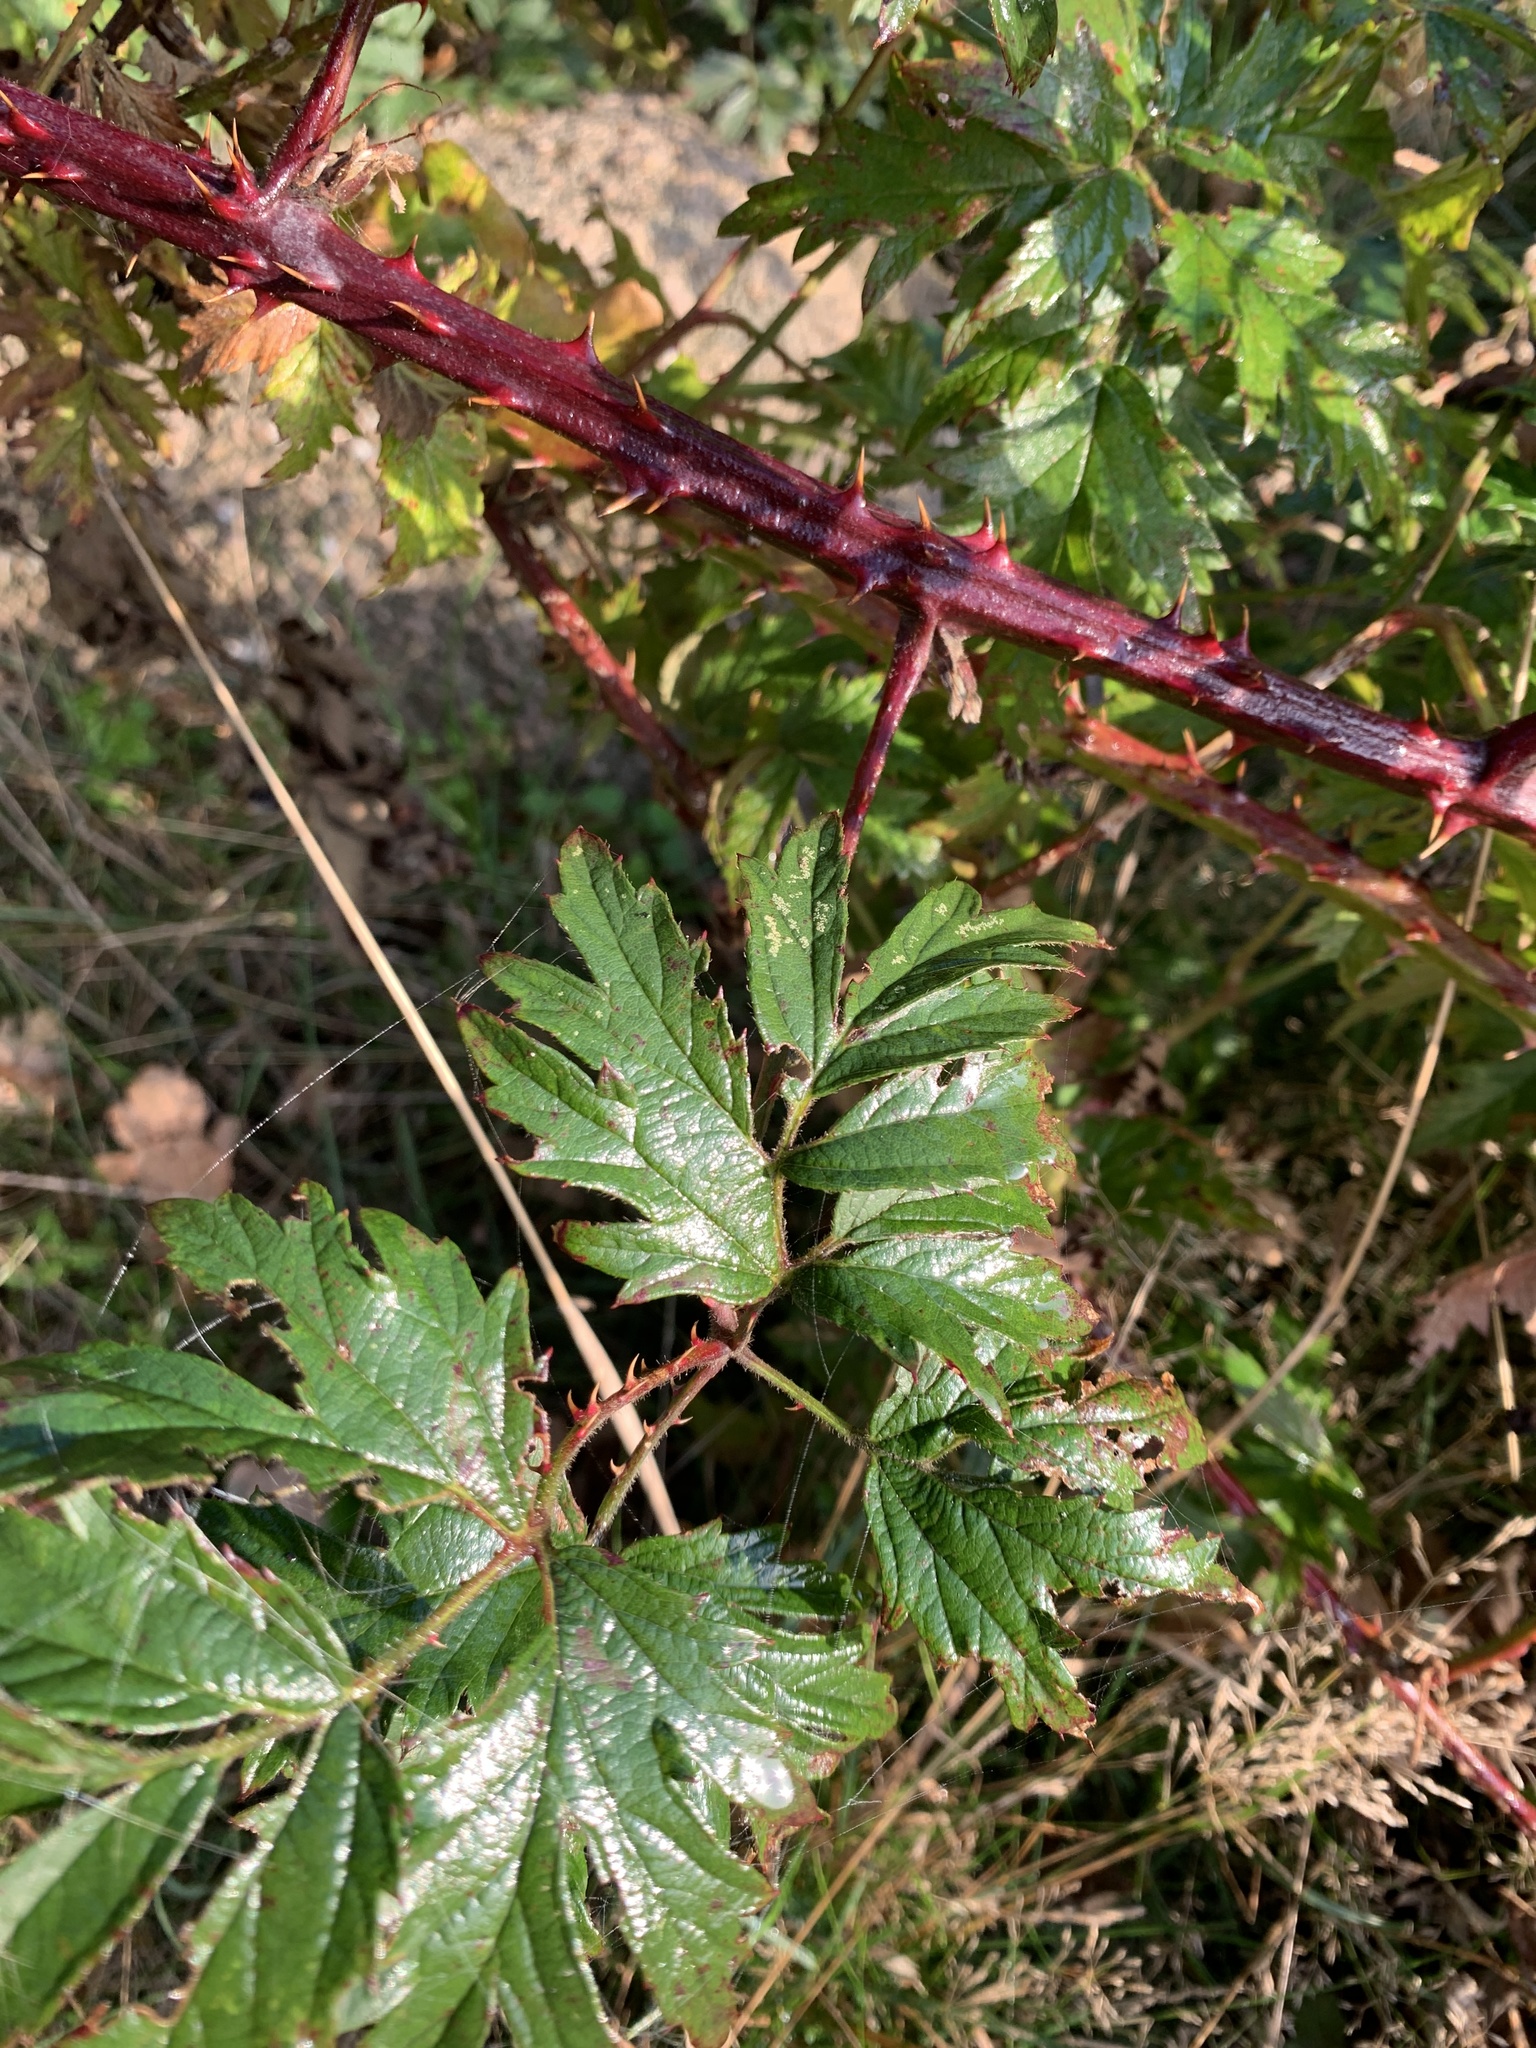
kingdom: Plantae
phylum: Tracheophyta
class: Magnoliopsida
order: Rosales
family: Rosaceae
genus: Rubus
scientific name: Rubus laciniatus
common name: Evergreen blackberry
